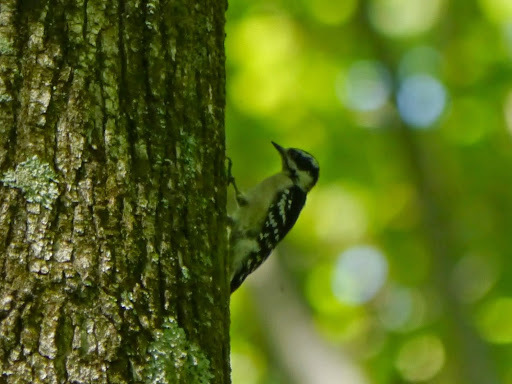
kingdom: Animalia
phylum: Chordata
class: Aves
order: Piciformes
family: Picidae
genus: Dryobates
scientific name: Dryobates pubescens
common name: Downy woodpecker
